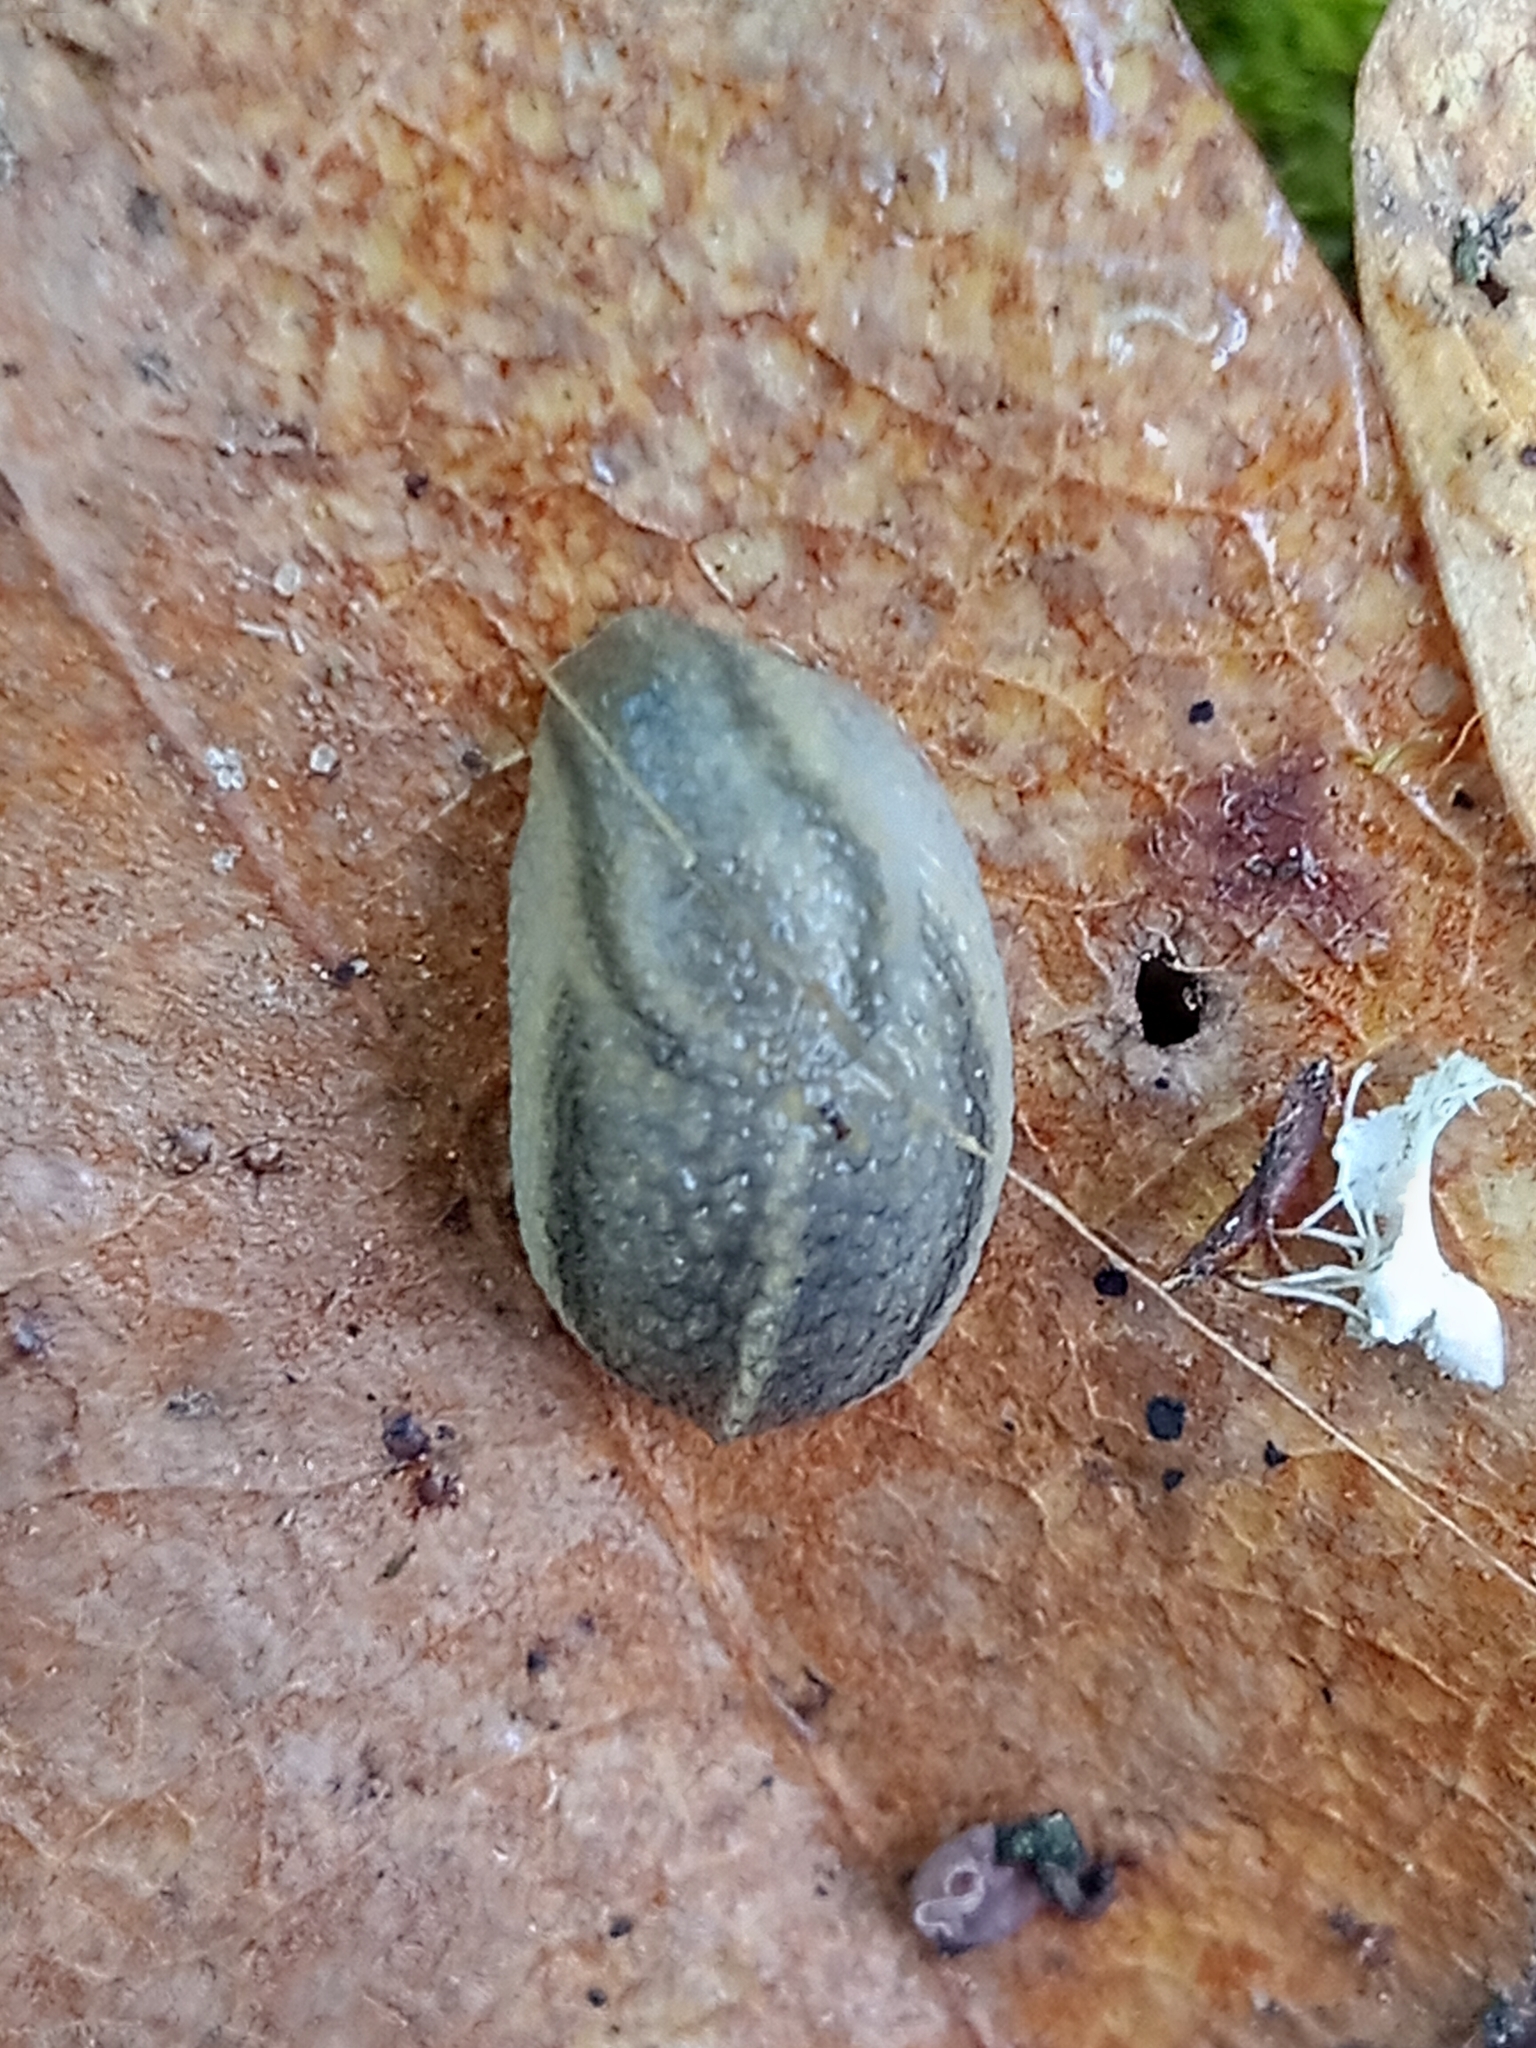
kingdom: Animalia
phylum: Mollusca
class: Gastropoda
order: Stylommatophora
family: Arionidae
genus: Arion
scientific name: Arion fasciatus
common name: Orange-banded arion
